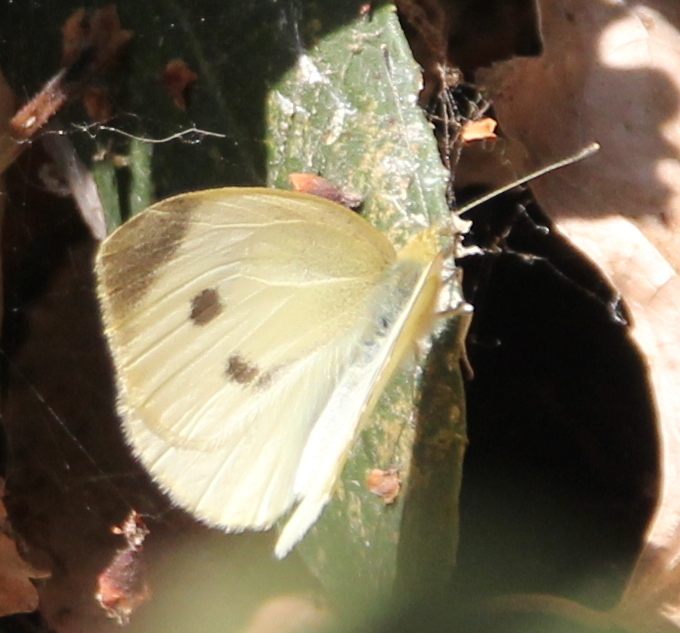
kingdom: Animalia
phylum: Arthropoda
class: Insecta
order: Lepidoptera
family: Pieridae
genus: Pieris
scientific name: Pieris rapae
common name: Small white
